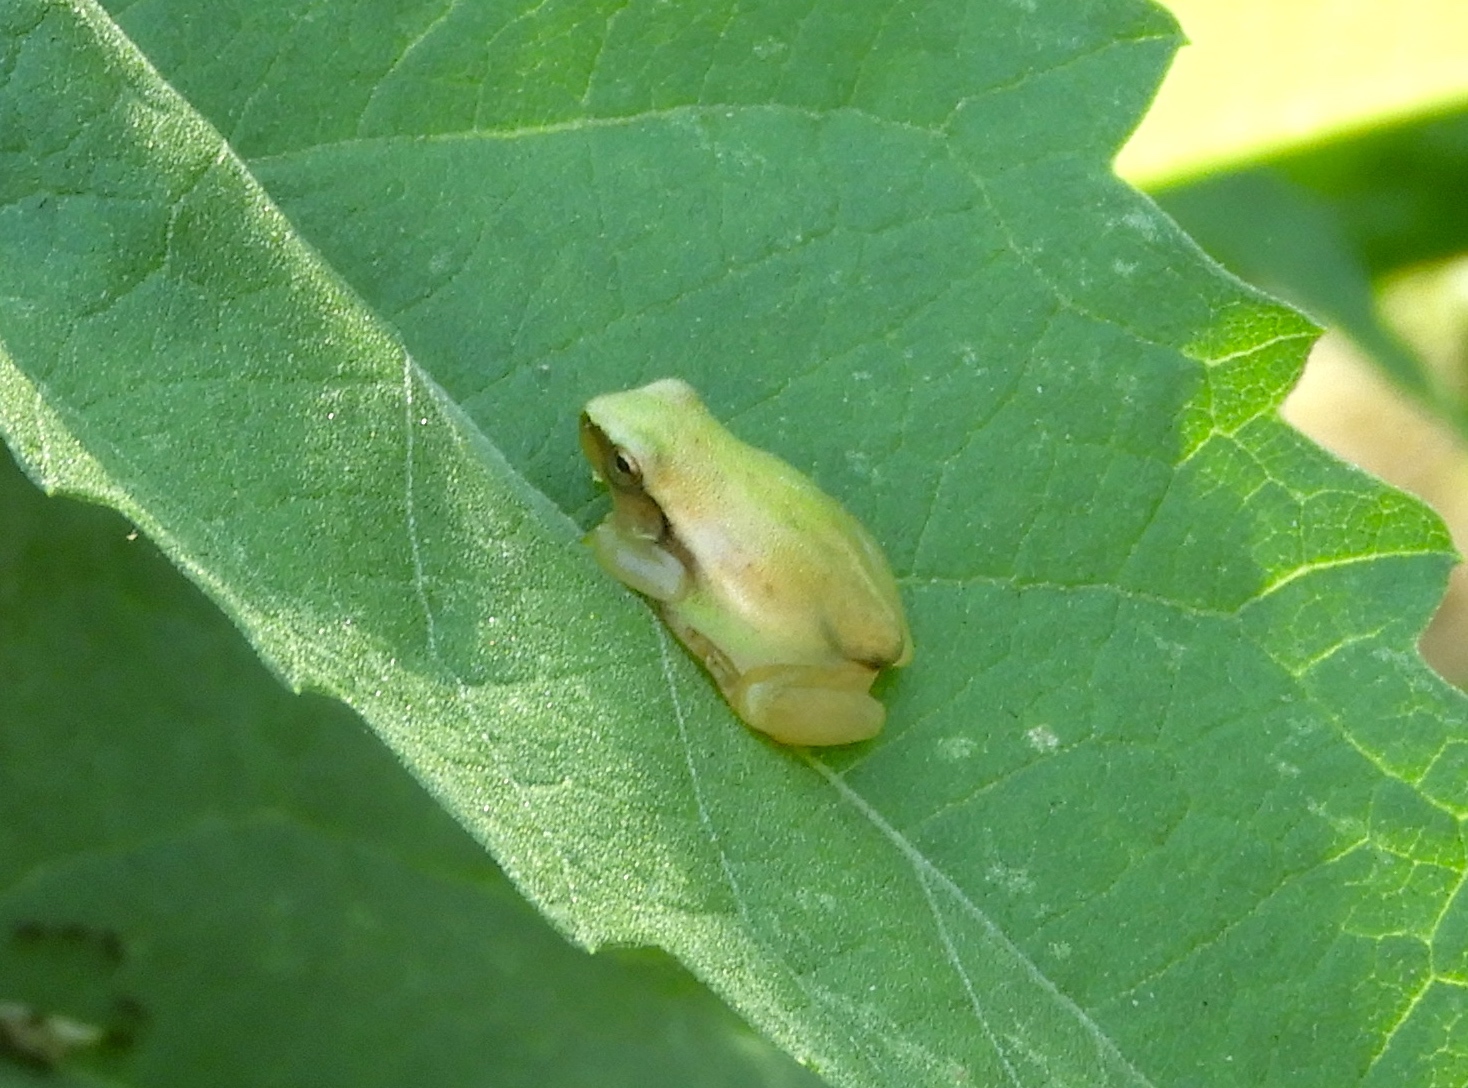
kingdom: Animalia
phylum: Chordata
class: Amphibia
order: Anura
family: Hylidae
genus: Tlalocohyla
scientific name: Tlalocohyla smithii
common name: Dwarf mexican treefrog
